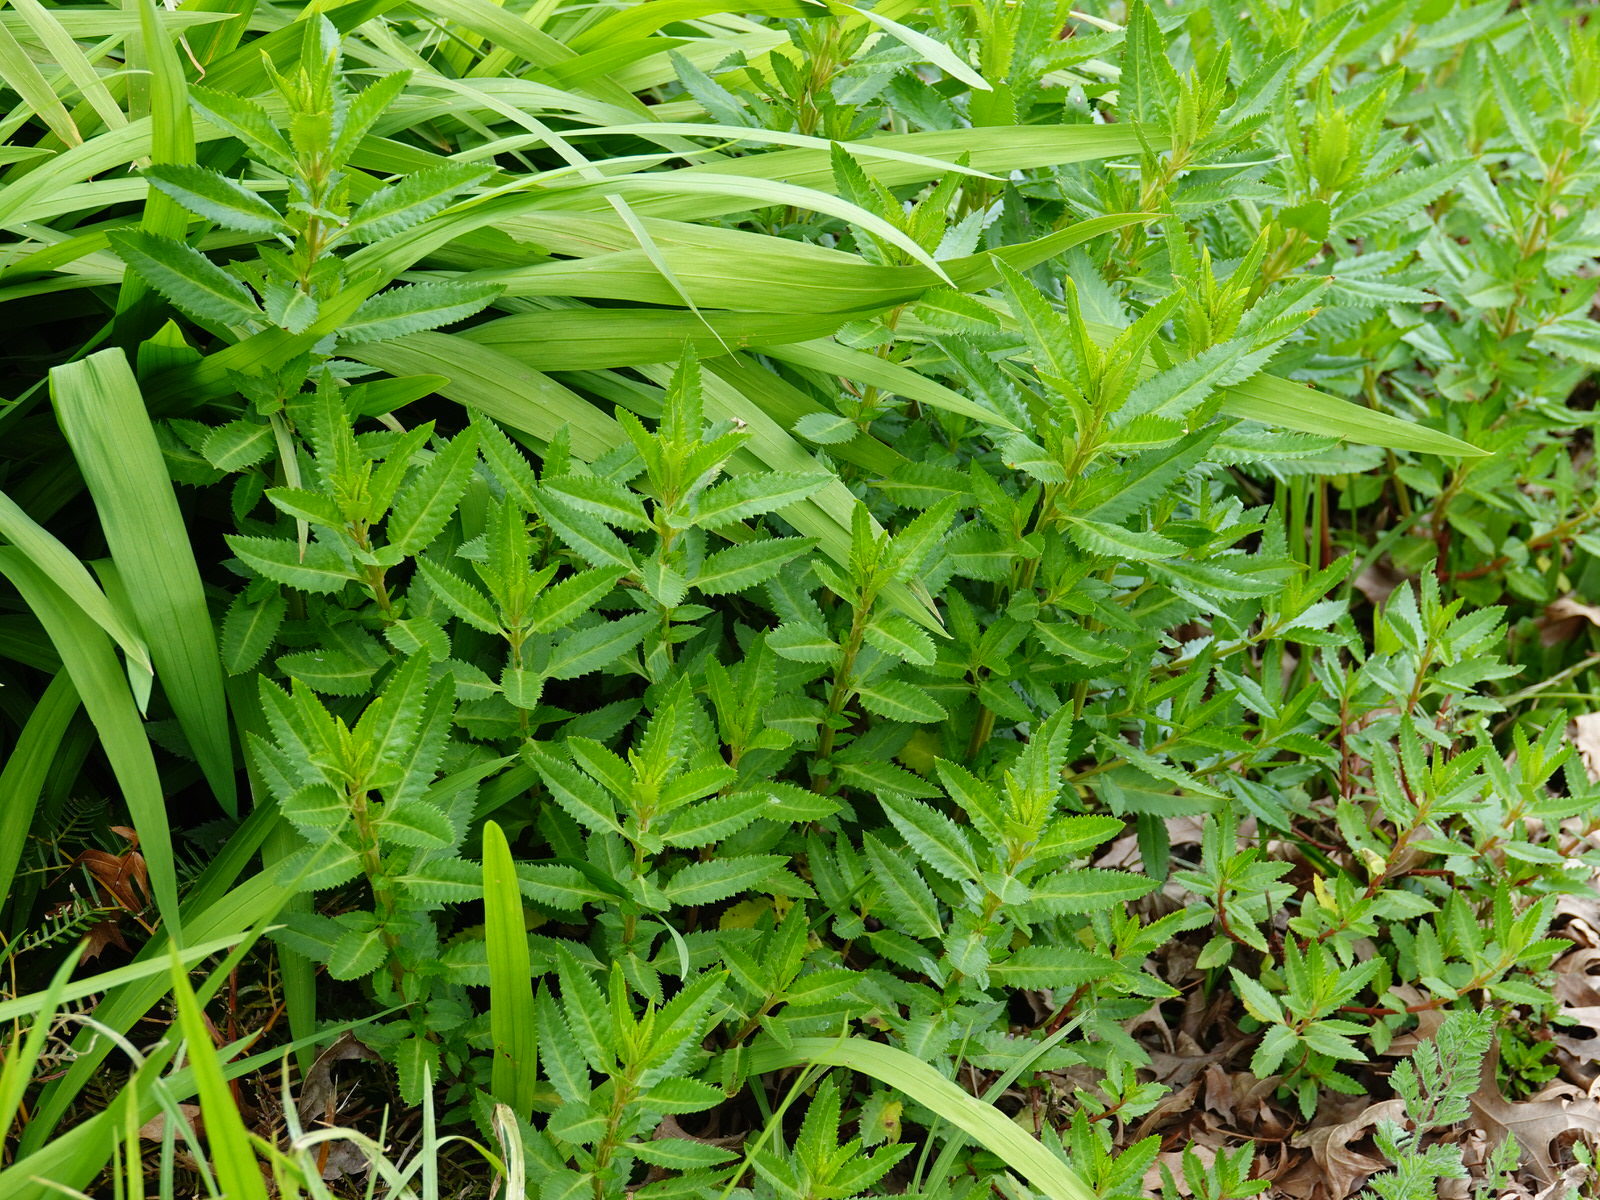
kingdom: Plantae
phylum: Tracheophyta
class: Magnoliopsida
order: Saxifragales
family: Haloragaceae
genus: Haloragis
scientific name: Haloragis erecta
